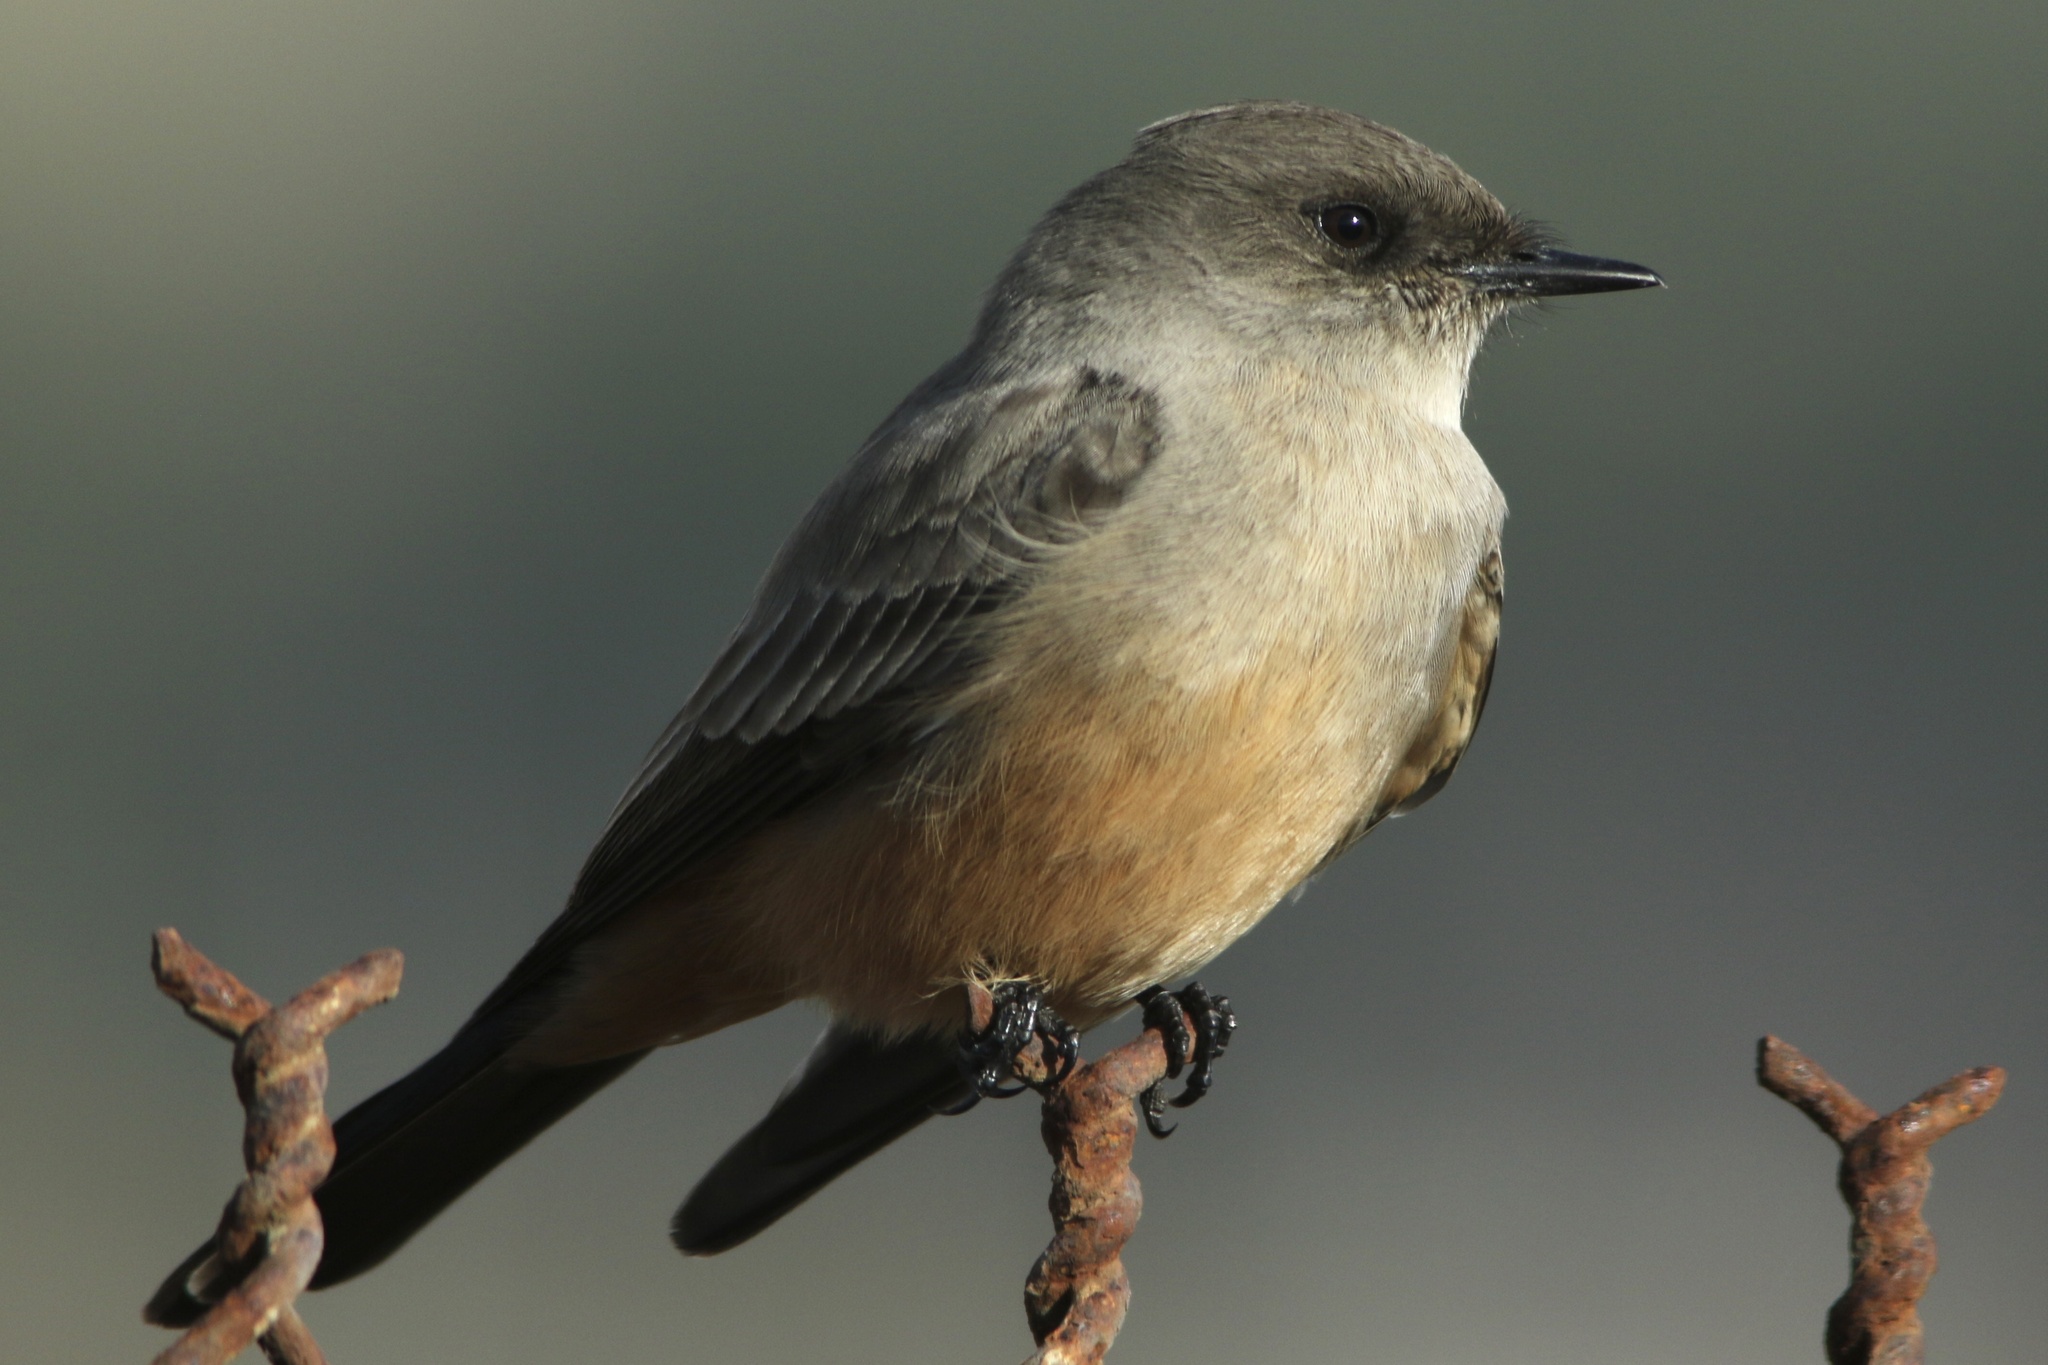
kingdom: Animalia
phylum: Chordata
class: Aves
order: Passeriformes
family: Tyrannidae
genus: Sayornis
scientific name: Sayornis saya
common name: Say's phoebe
